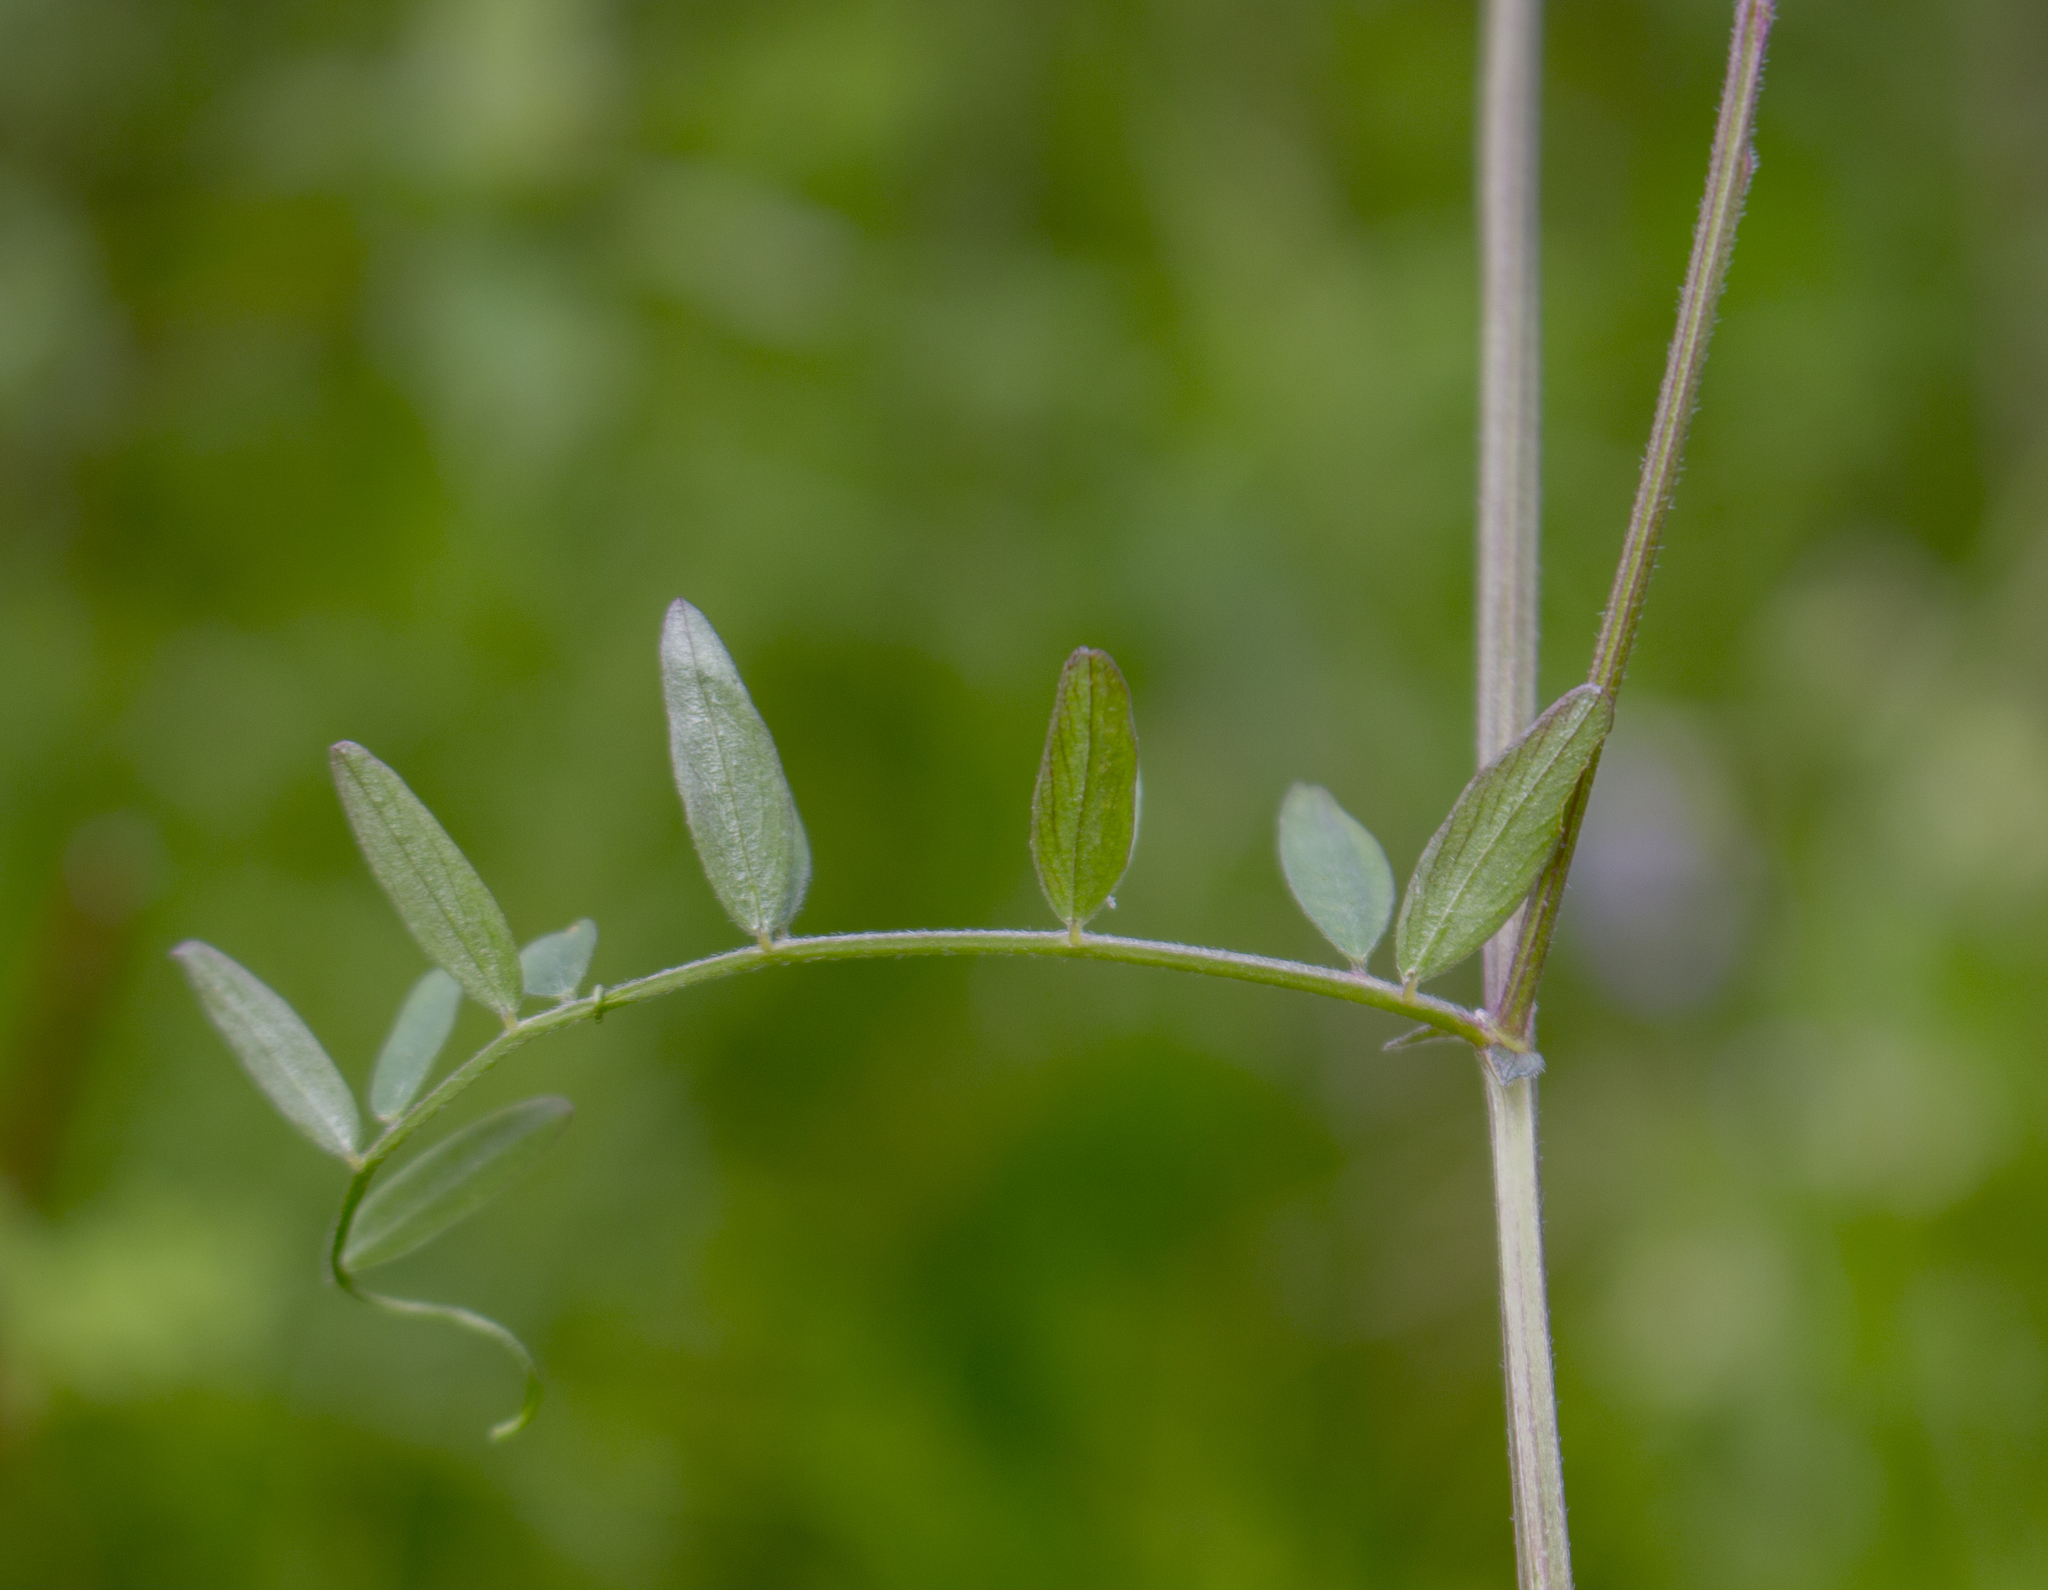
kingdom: Plantae
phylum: Tracheophyta
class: Magnoliopsida
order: Fabales
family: Fabaceae
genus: Vicia
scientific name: Vicia caroliniana
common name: Carolina vetch
